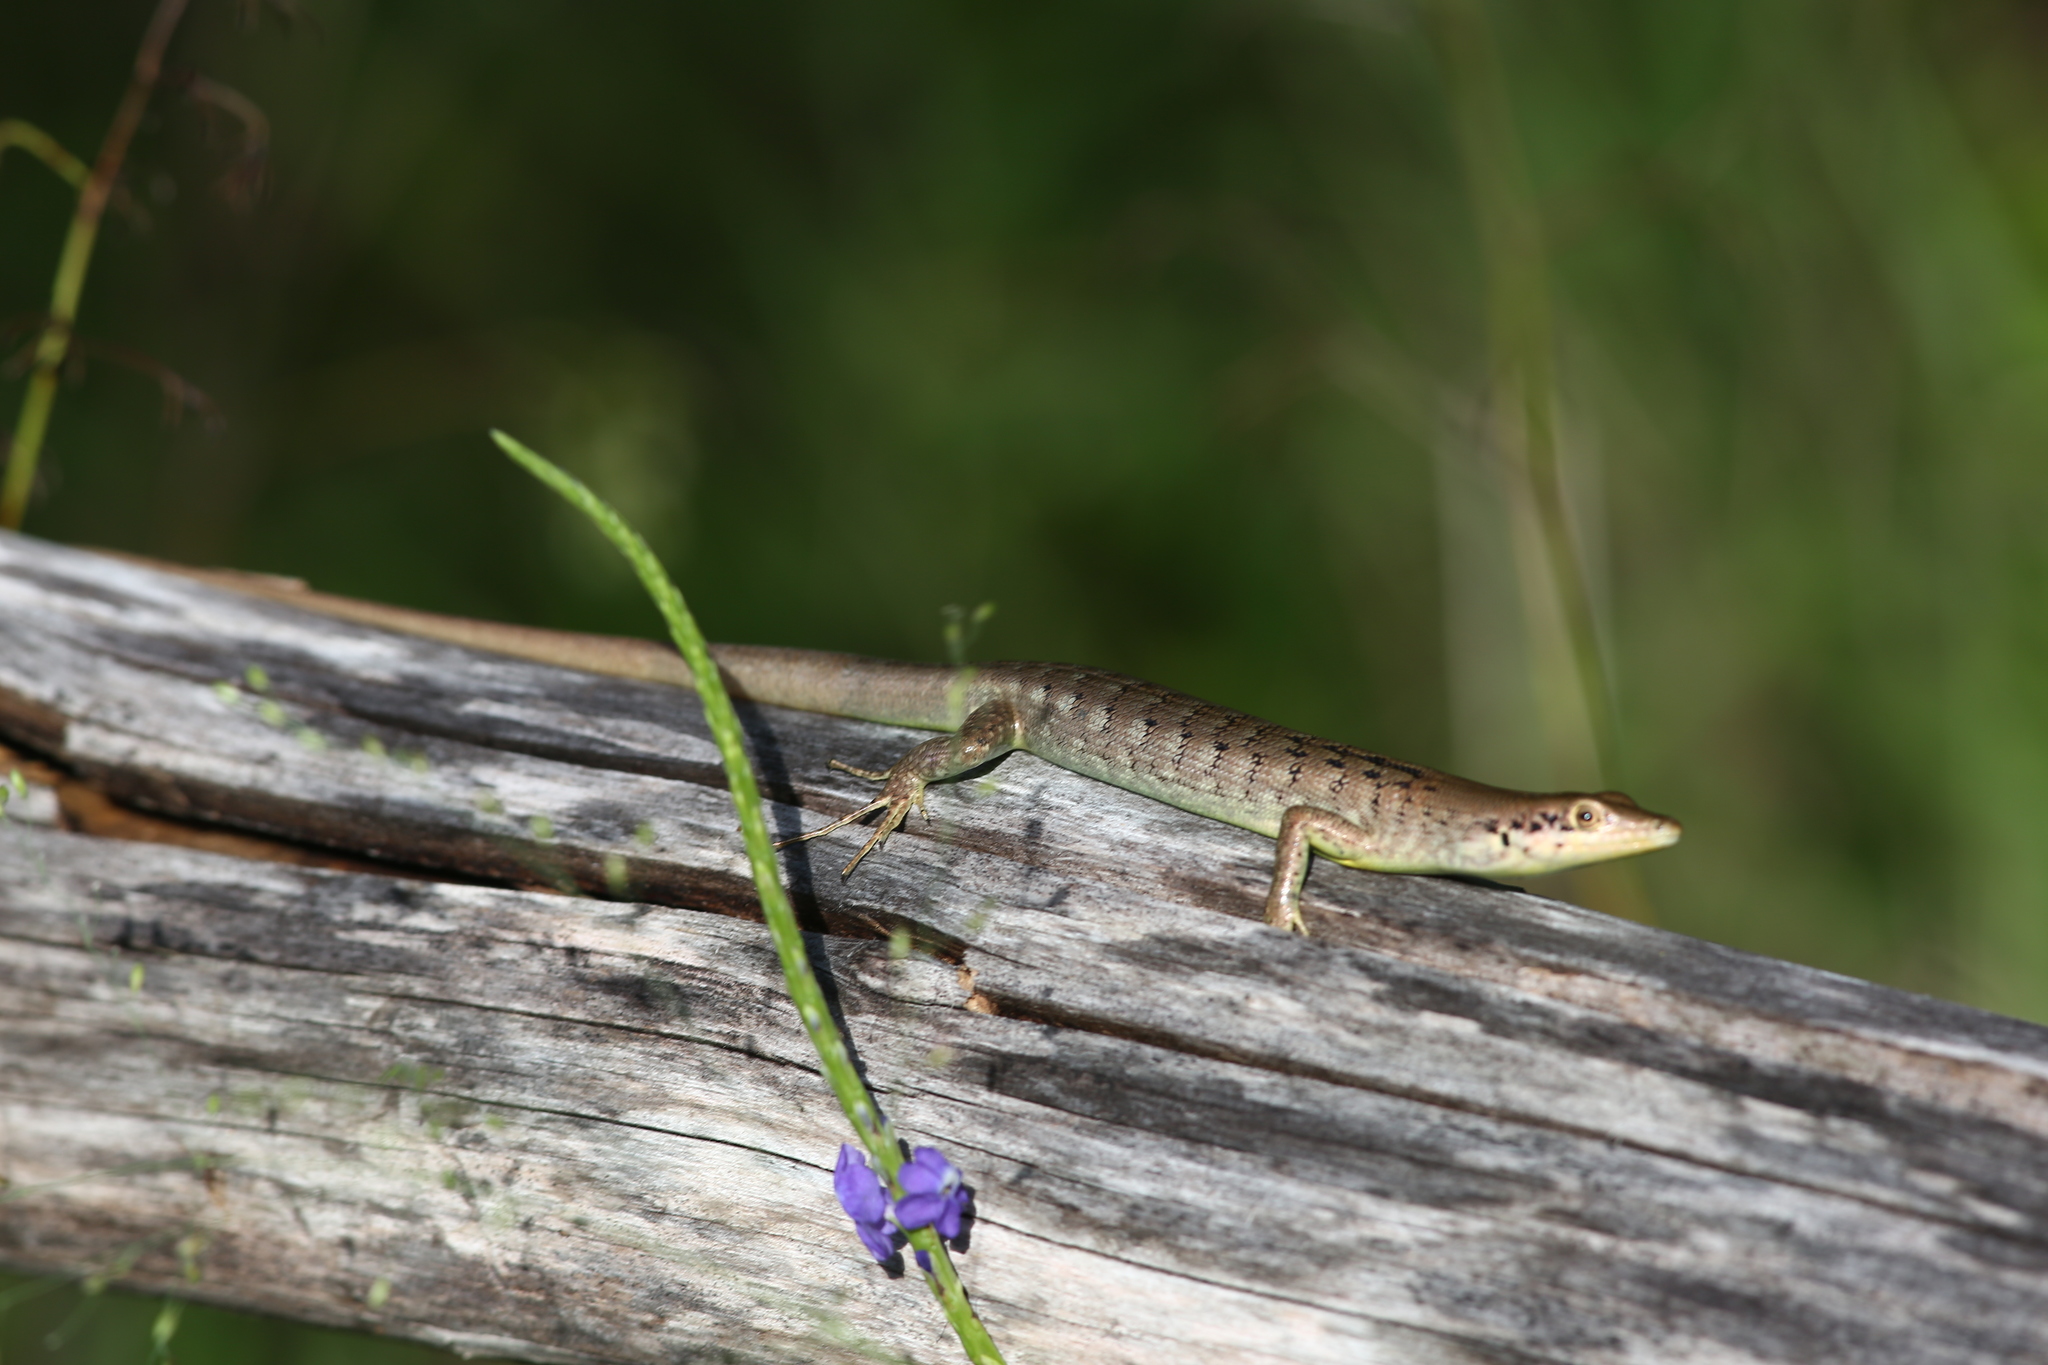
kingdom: Animalia
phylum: Chordata
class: Squamata
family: Scincidae
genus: Epibator
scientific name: Epibator nigrofasciolatus
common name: Green-bellied tree skink
